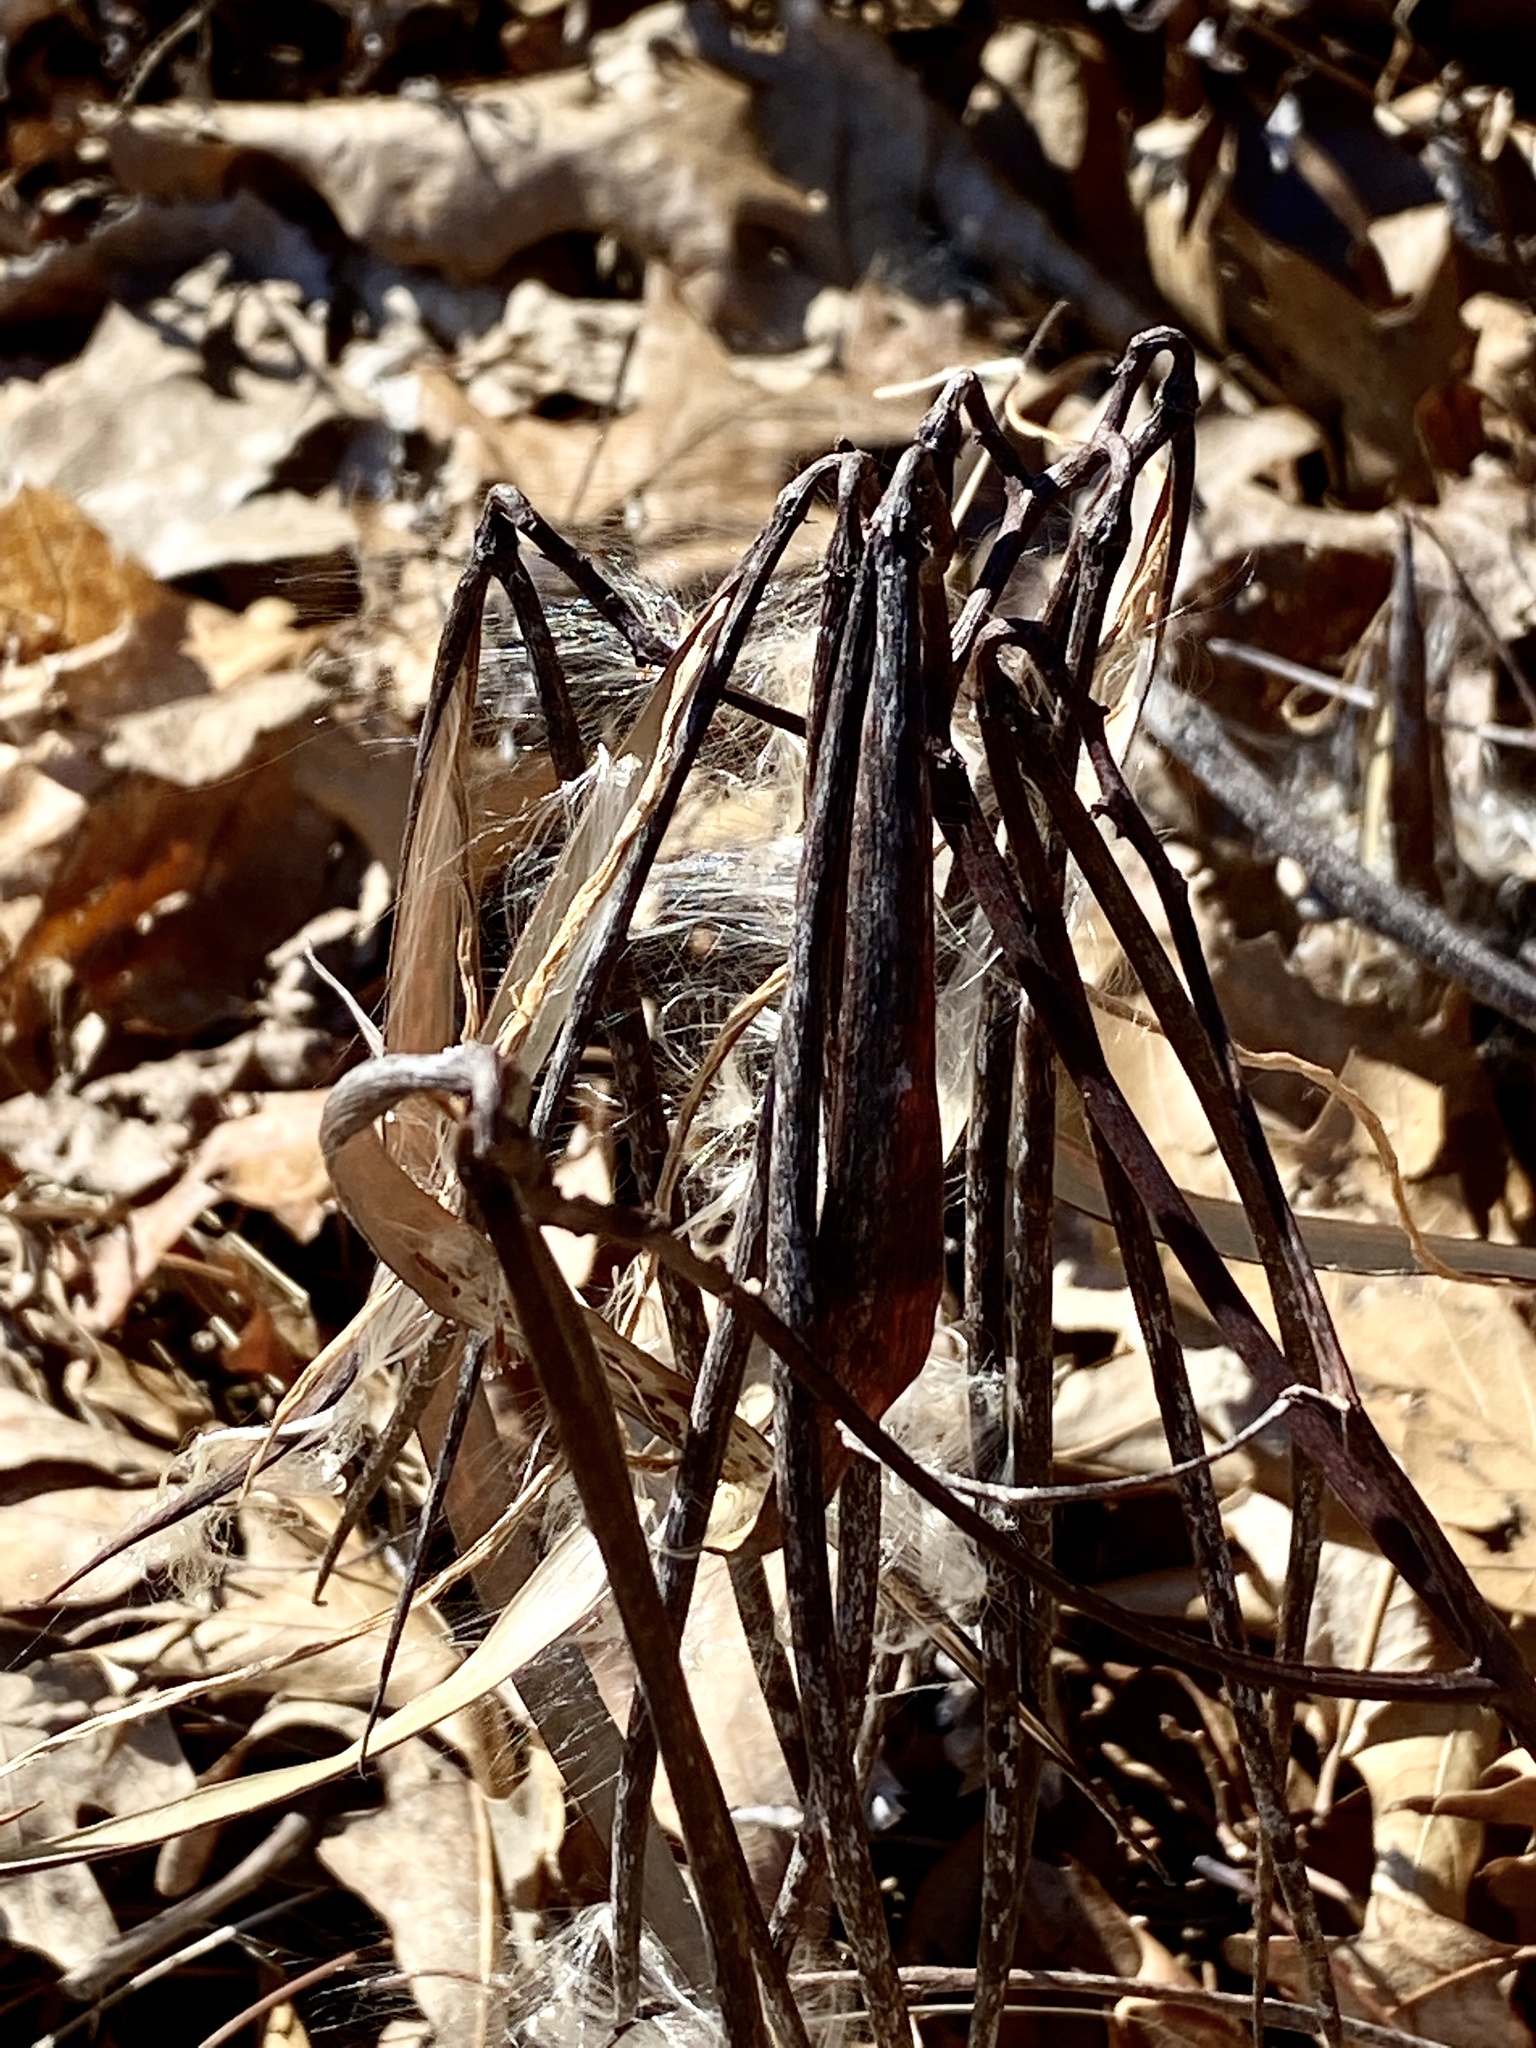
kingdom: Plantae
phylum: Tracheophyta
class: Magnoliopsida
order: Gentianales
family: Apocynaceae
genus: Apocynum
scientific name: Apocynum cannabinum
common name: Hemp dogbane
